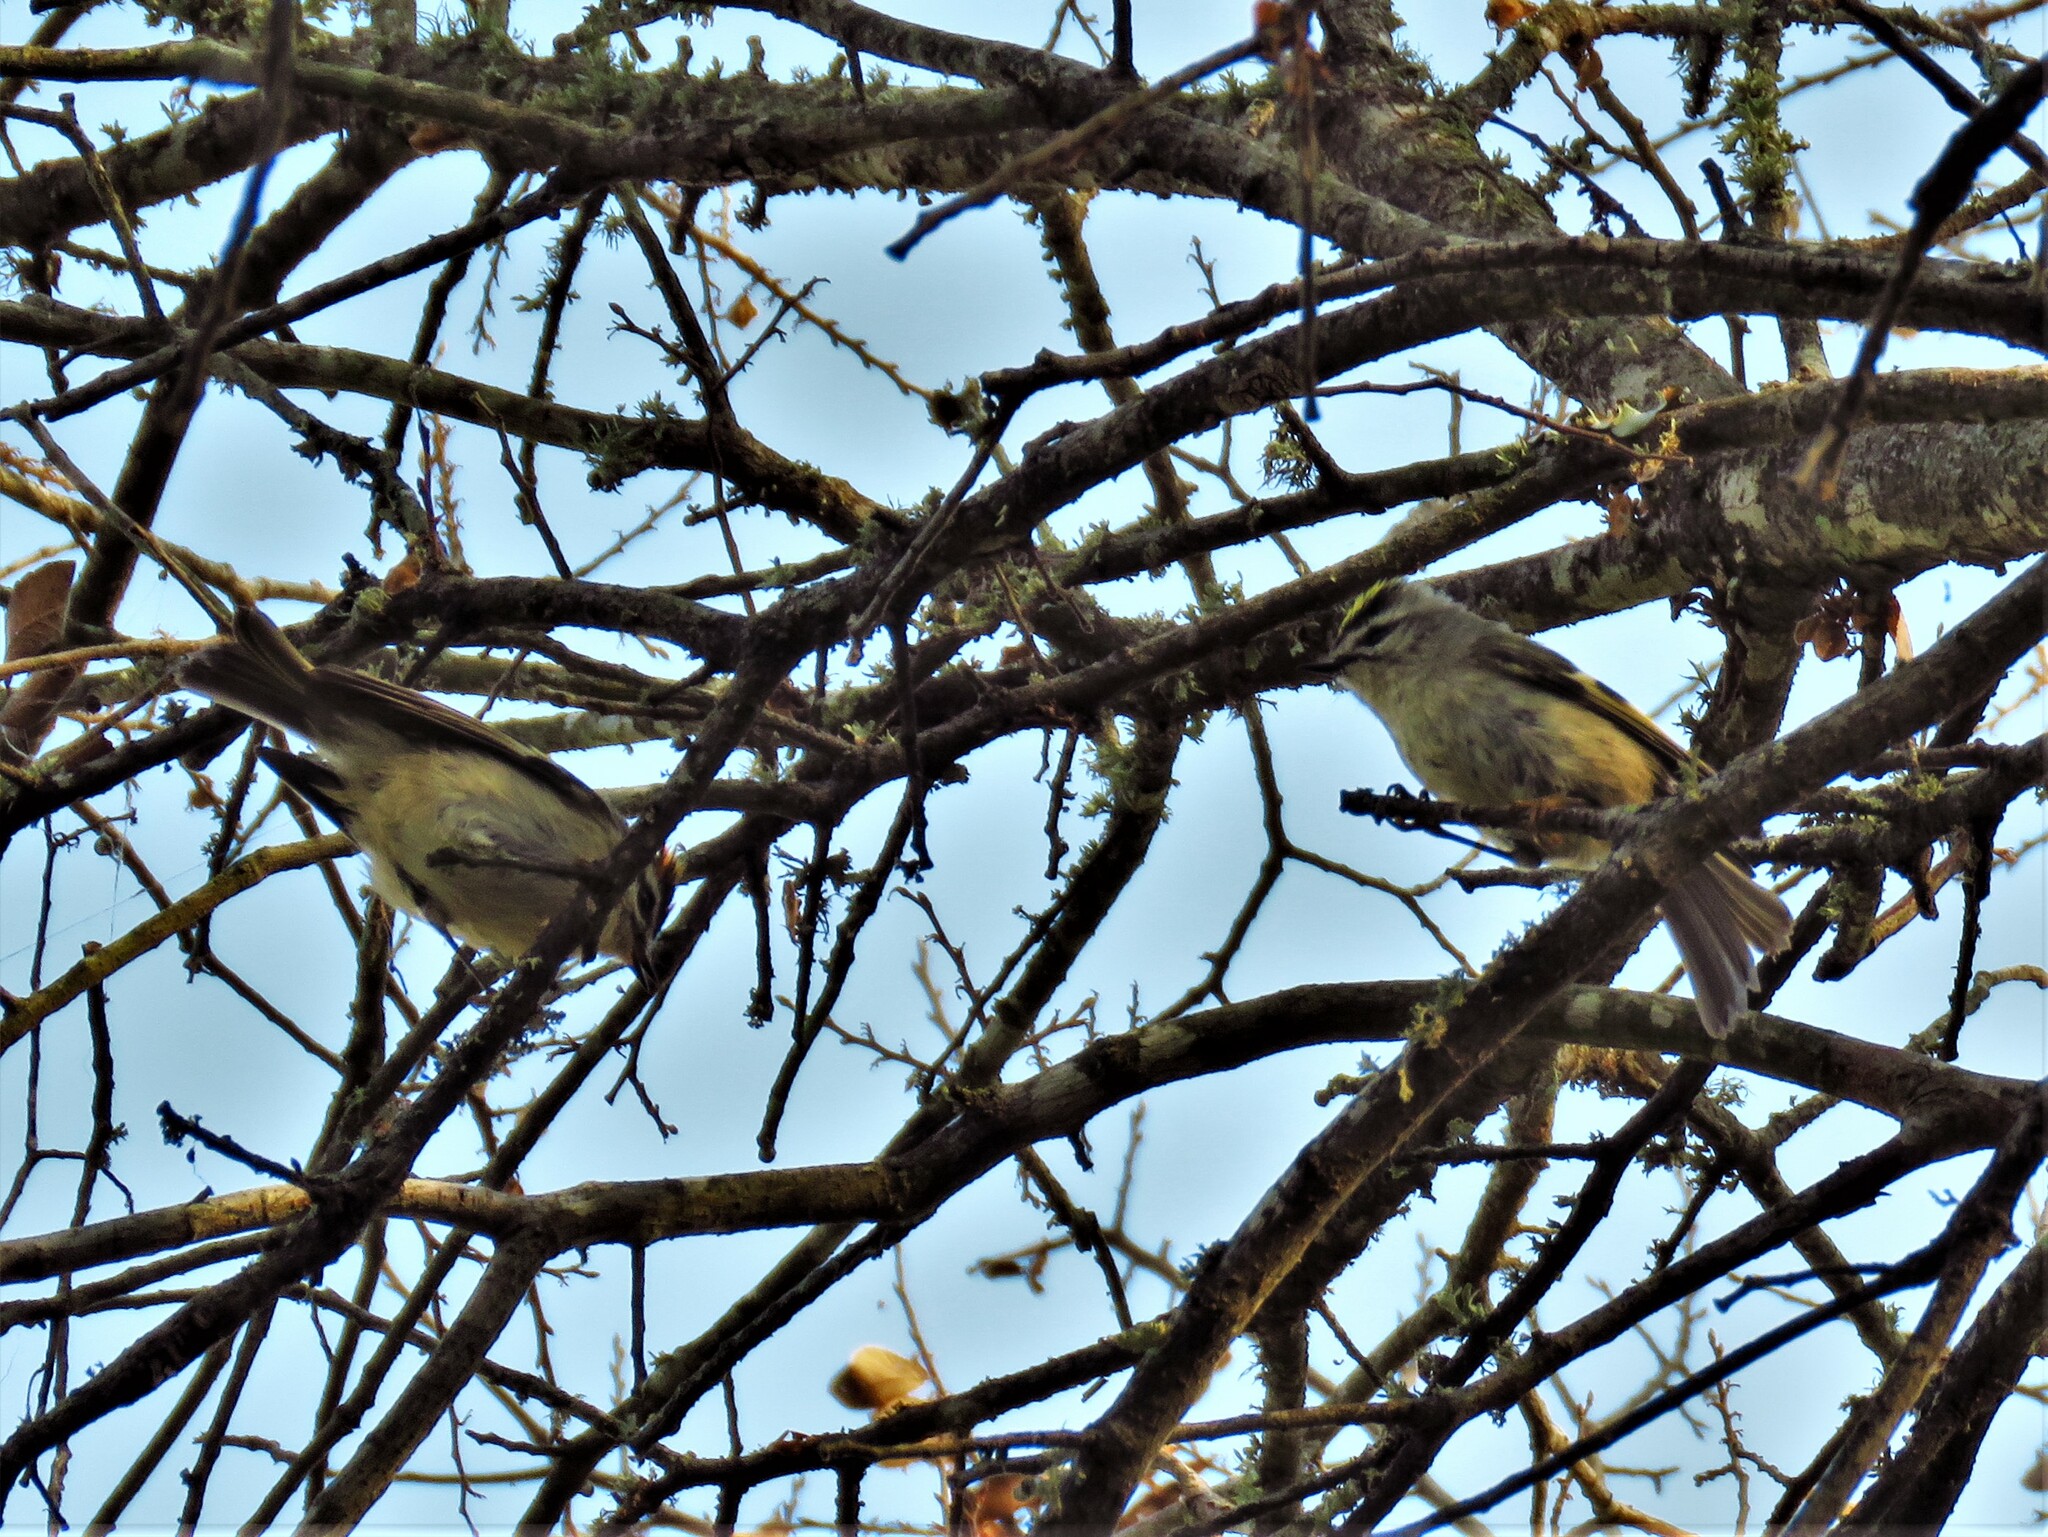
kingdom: Animalia
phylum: Chordata
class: Aves
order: Passeriformes
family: Regulidae
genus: Regulus
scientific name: Regulus satrapa
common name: Golden-crowned kinglet
